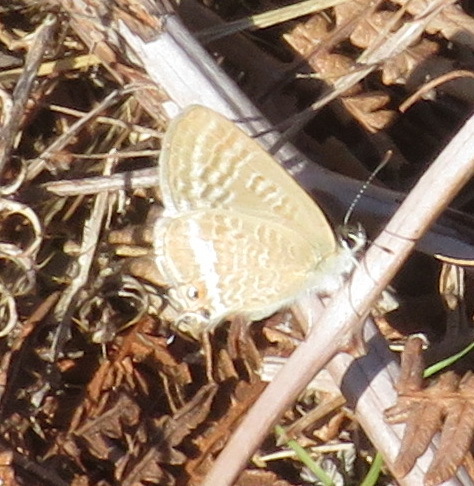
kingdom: Animalia
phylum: Arthropoda
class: Insecta
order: Lepidoptera
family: Lycaenidae
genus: Lampides
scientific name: Lampides boeticus
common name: Long-tailed blue
